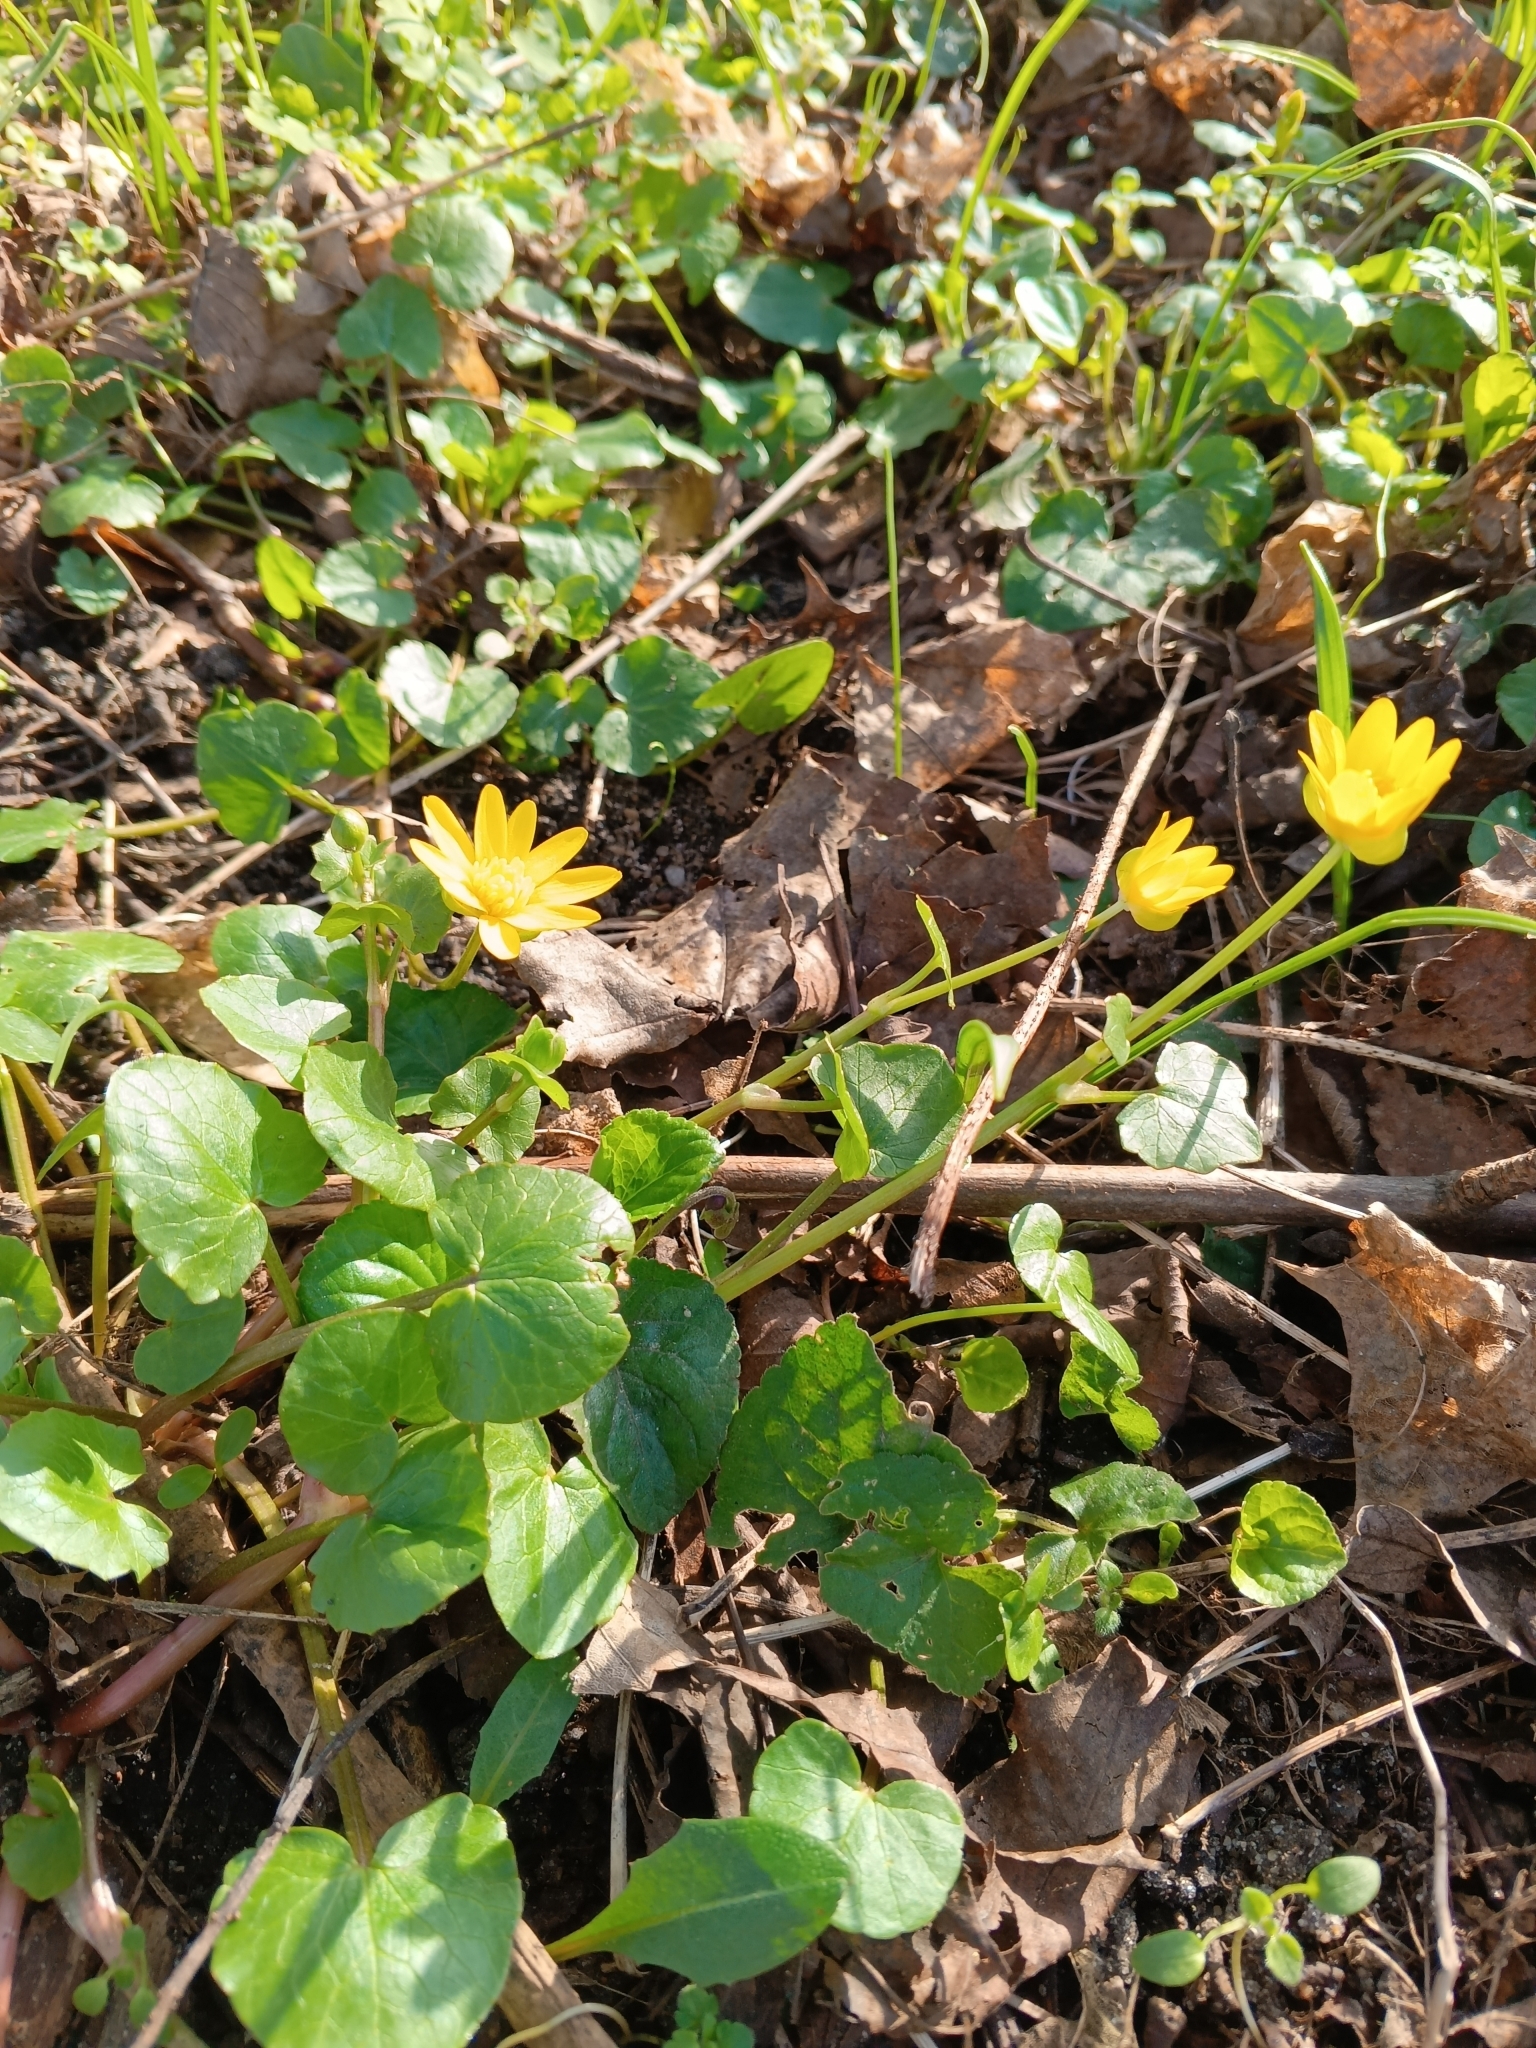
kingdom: Plantae
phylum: Tracheophyta
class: Magnoliopsida
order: Ranunculales
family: Ranunculaceae
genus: Ficaria
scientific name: Ficaria verna
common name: Lesser celandine
